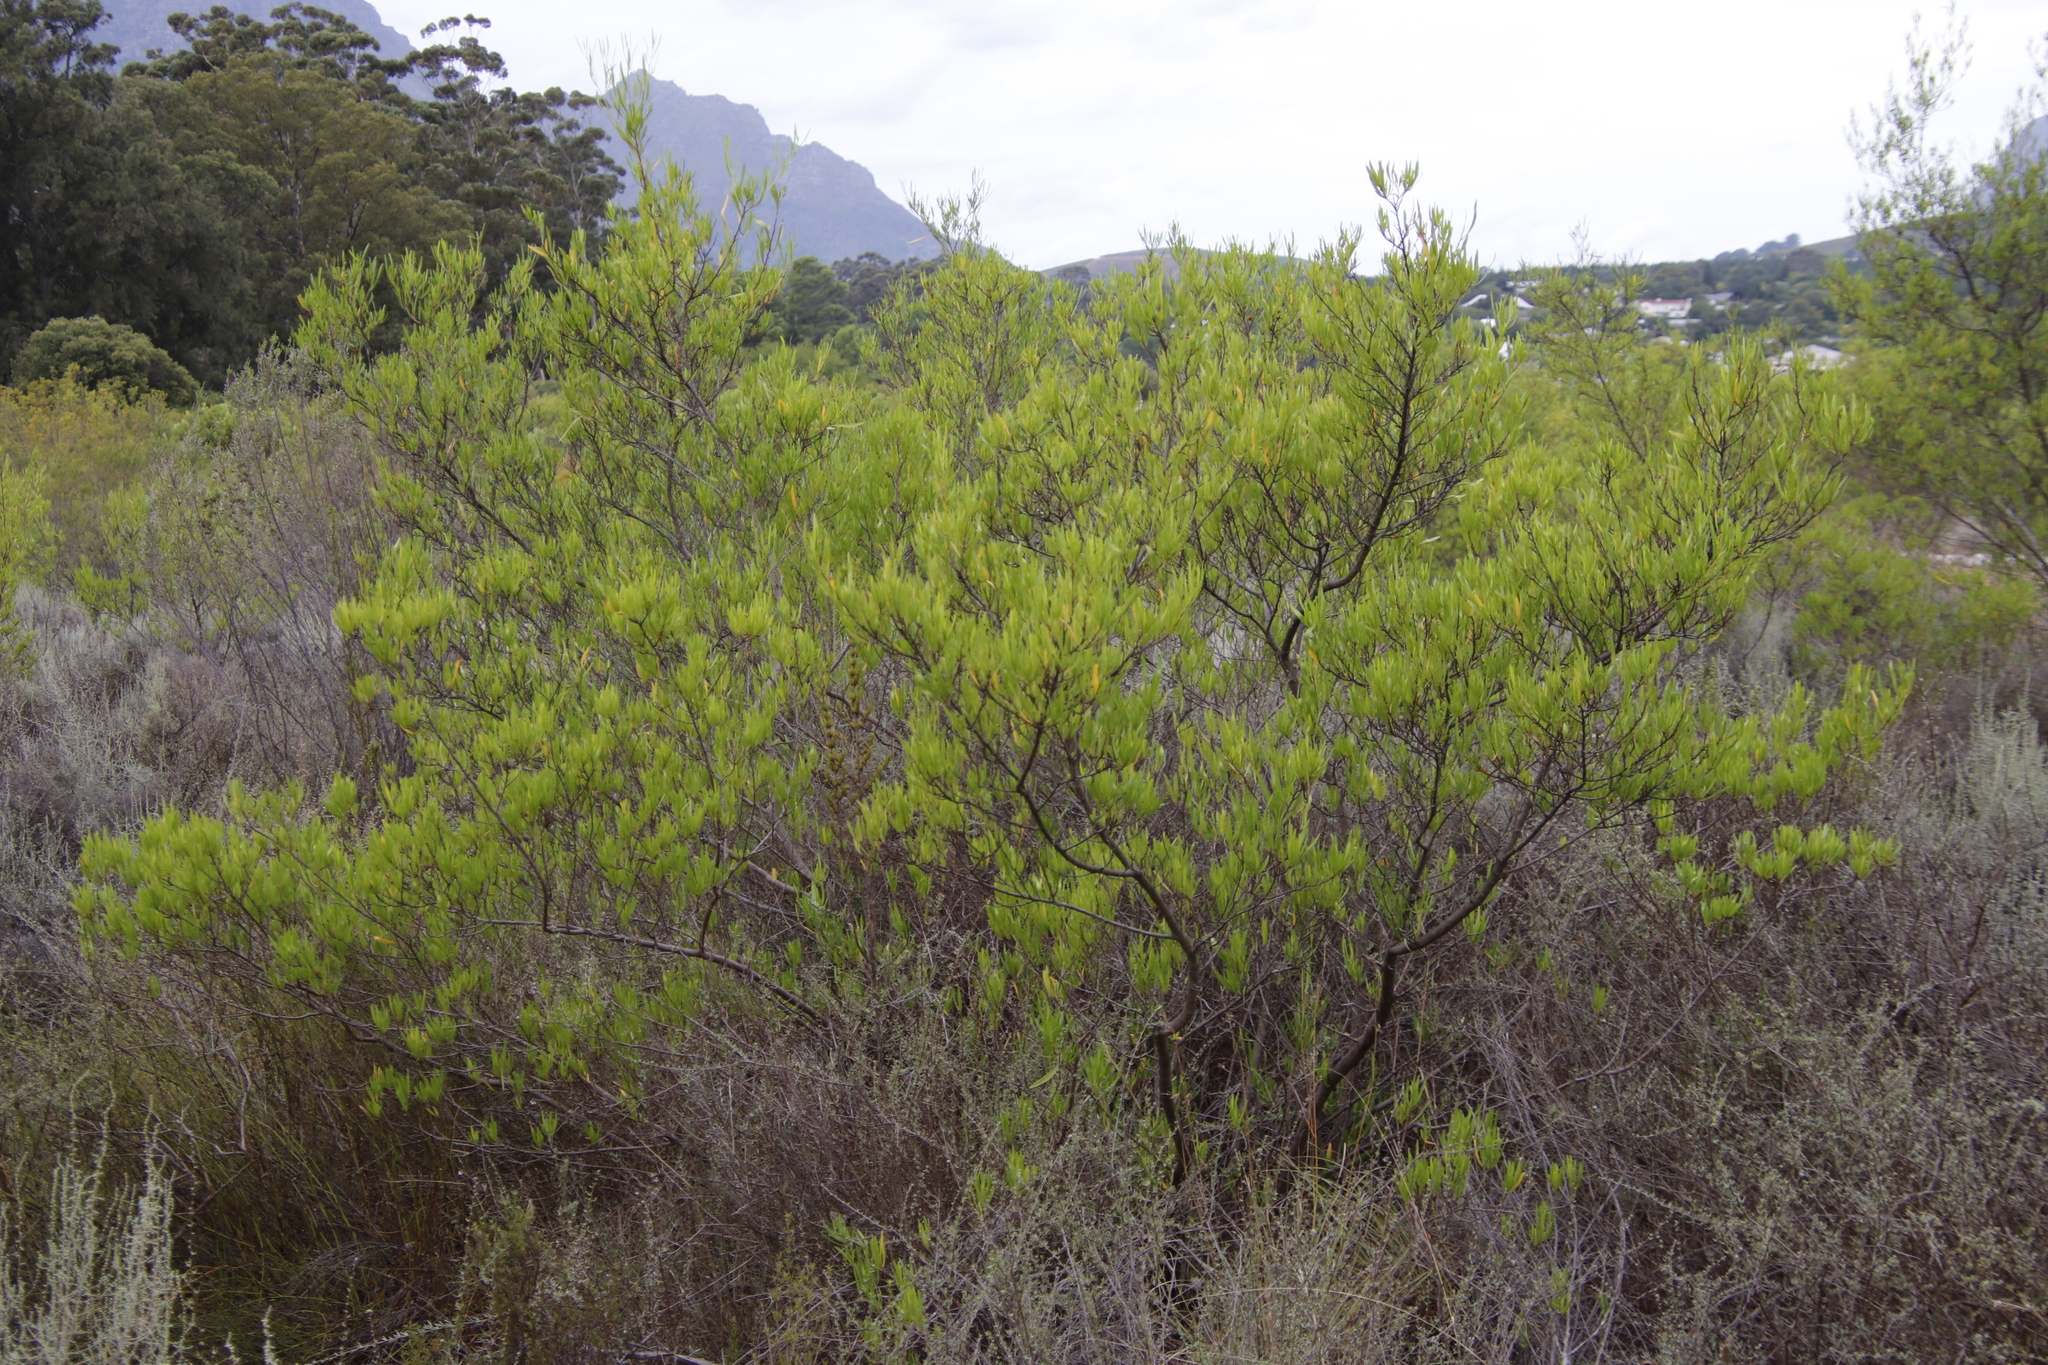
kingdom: Plantae
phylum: Tracheophyta
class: Magnoliopsida
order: Sapindales
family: Sapindaceae
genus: Dodonaea
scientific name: Dodonaea viscosa
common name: Hopbush
